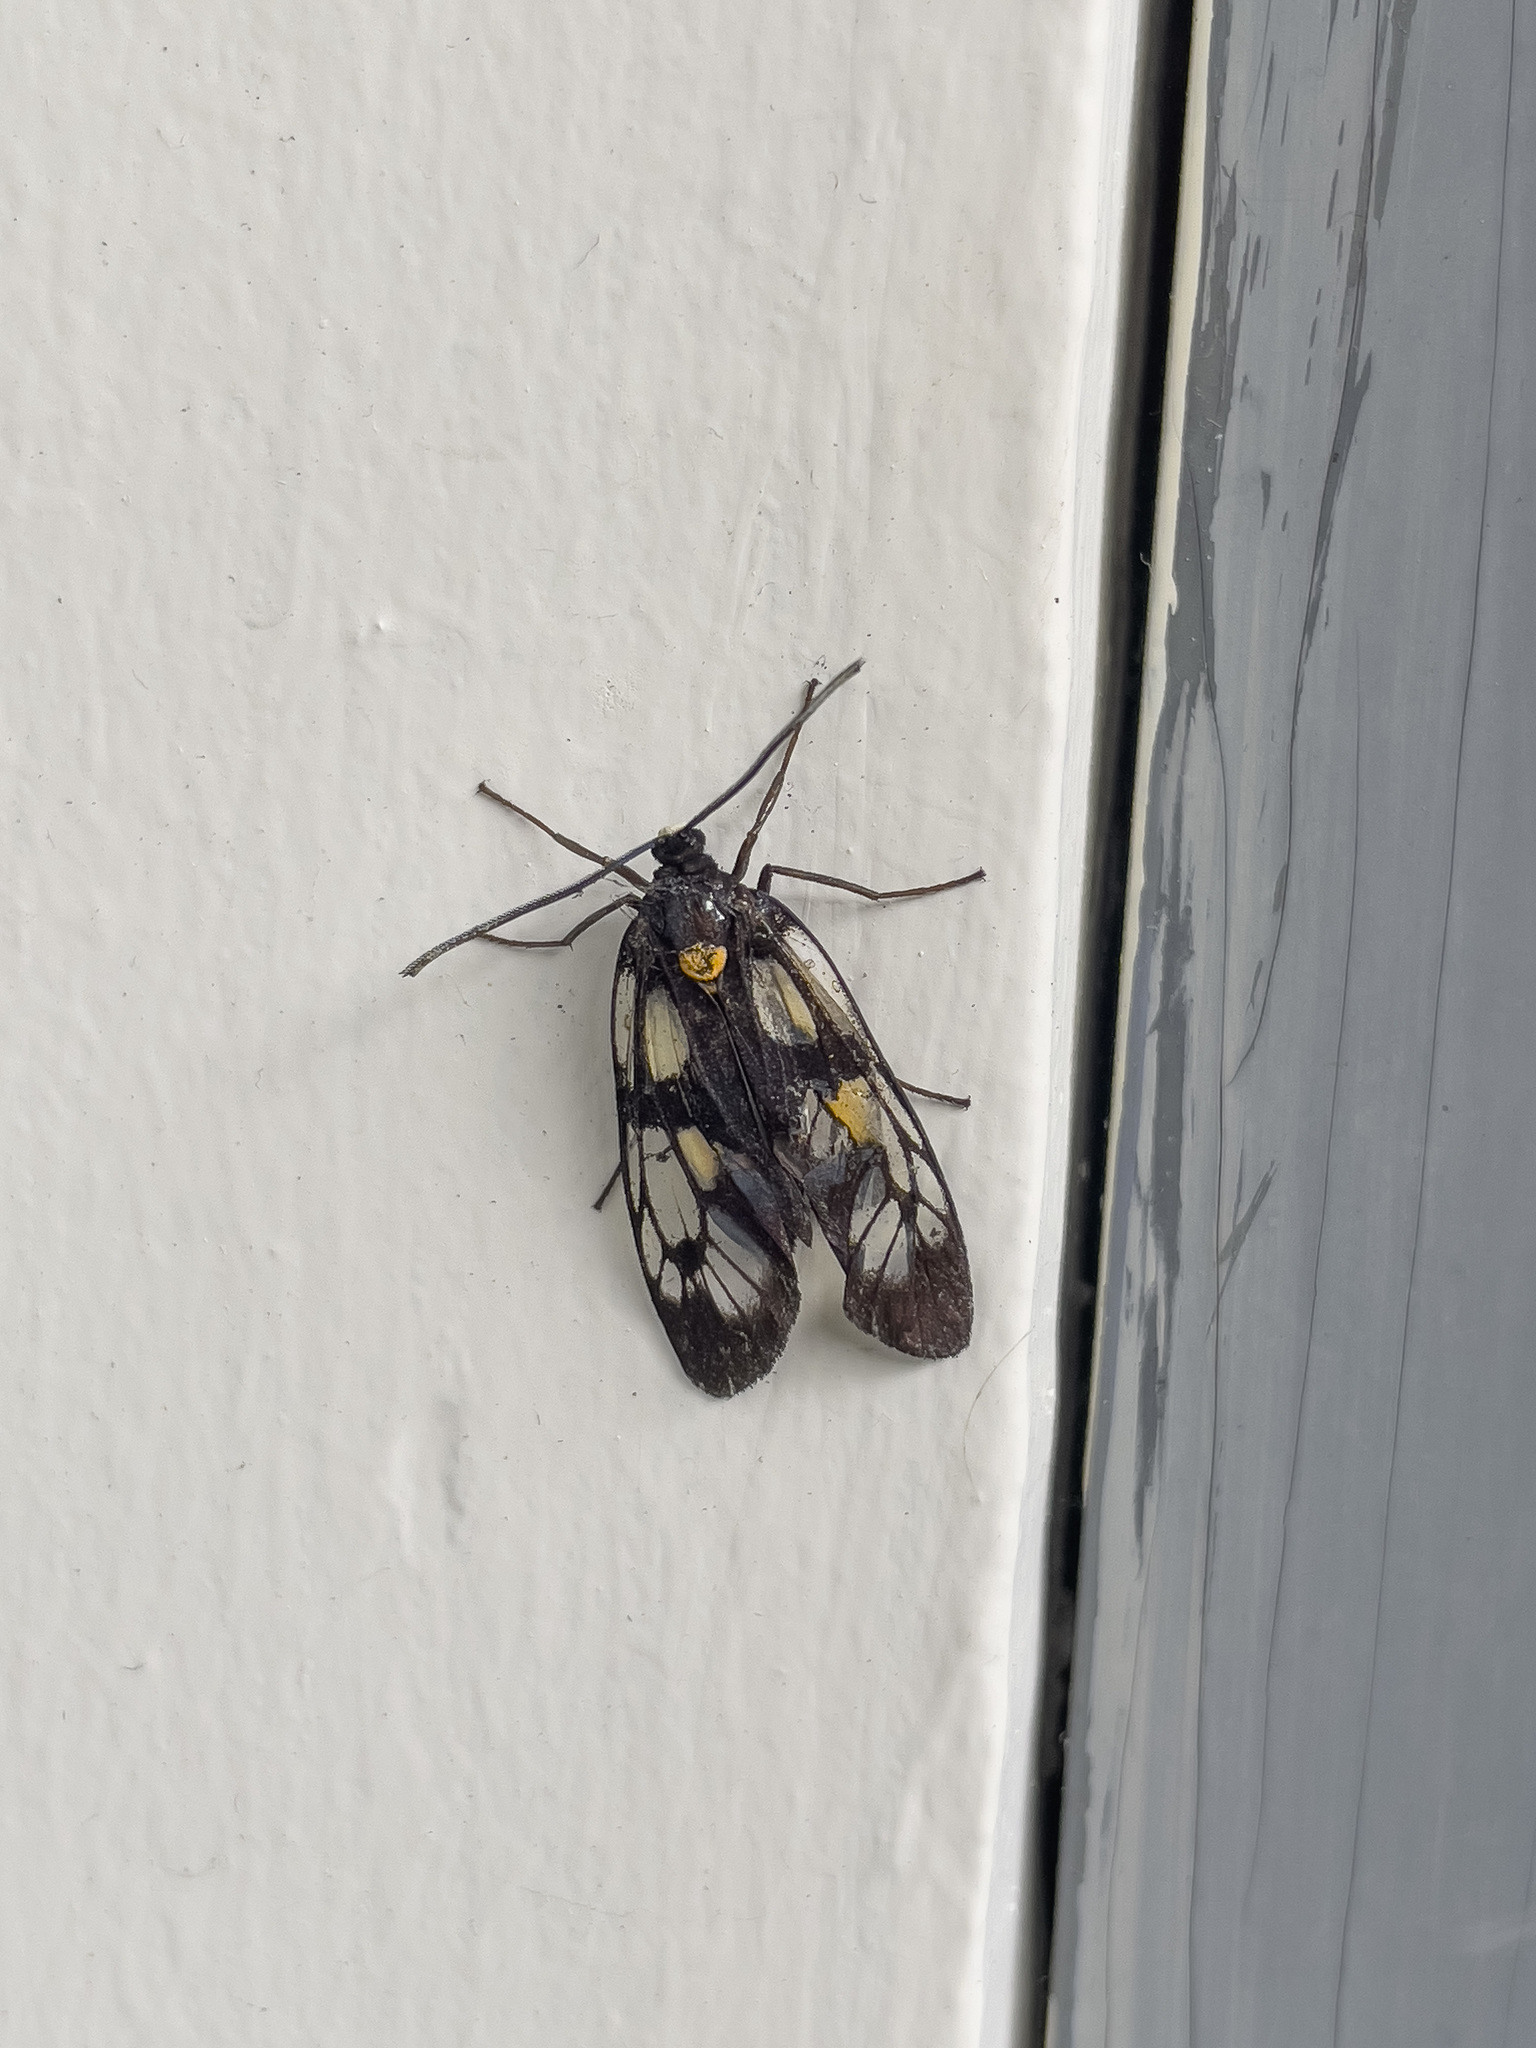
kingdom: Animalia
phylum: Arthropoda
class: Insecta
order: Lepidoptera
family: Zygaenidae
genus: Trypanophora
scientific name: Trypanophora semihyalina
